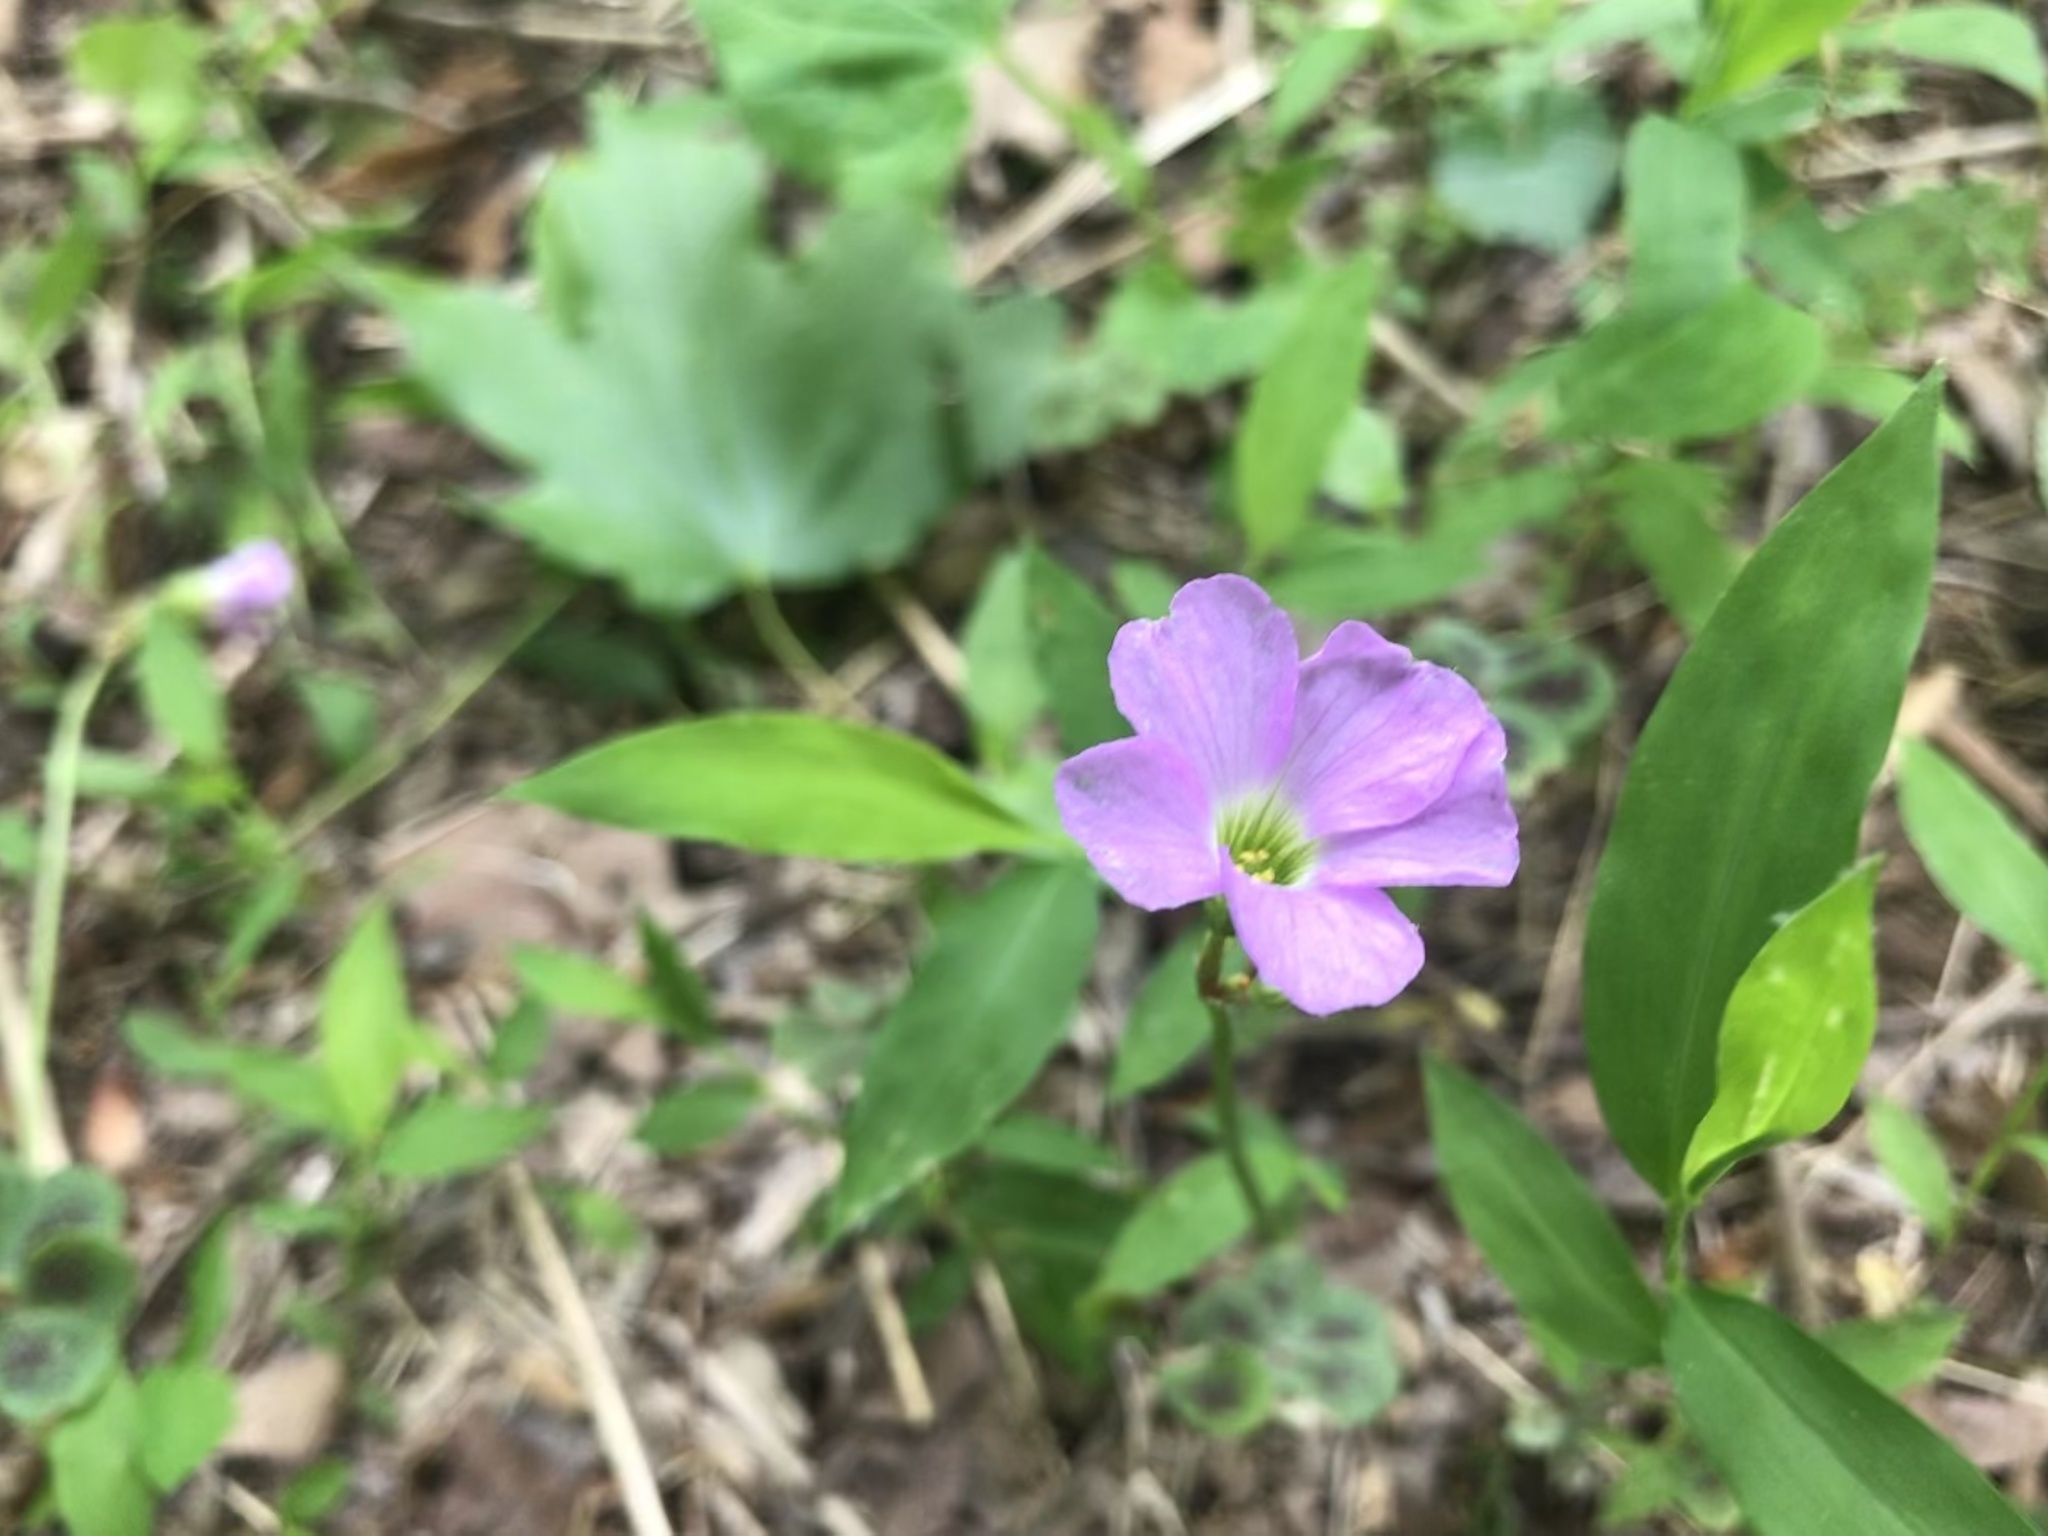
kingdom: Plantae
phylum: Tracheophyta
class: Magnoliopsida
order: Oxalidales
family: Oxalidaceae
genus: Oxalis
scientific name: Oxalis violacea
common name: Violet wood-sorrel
